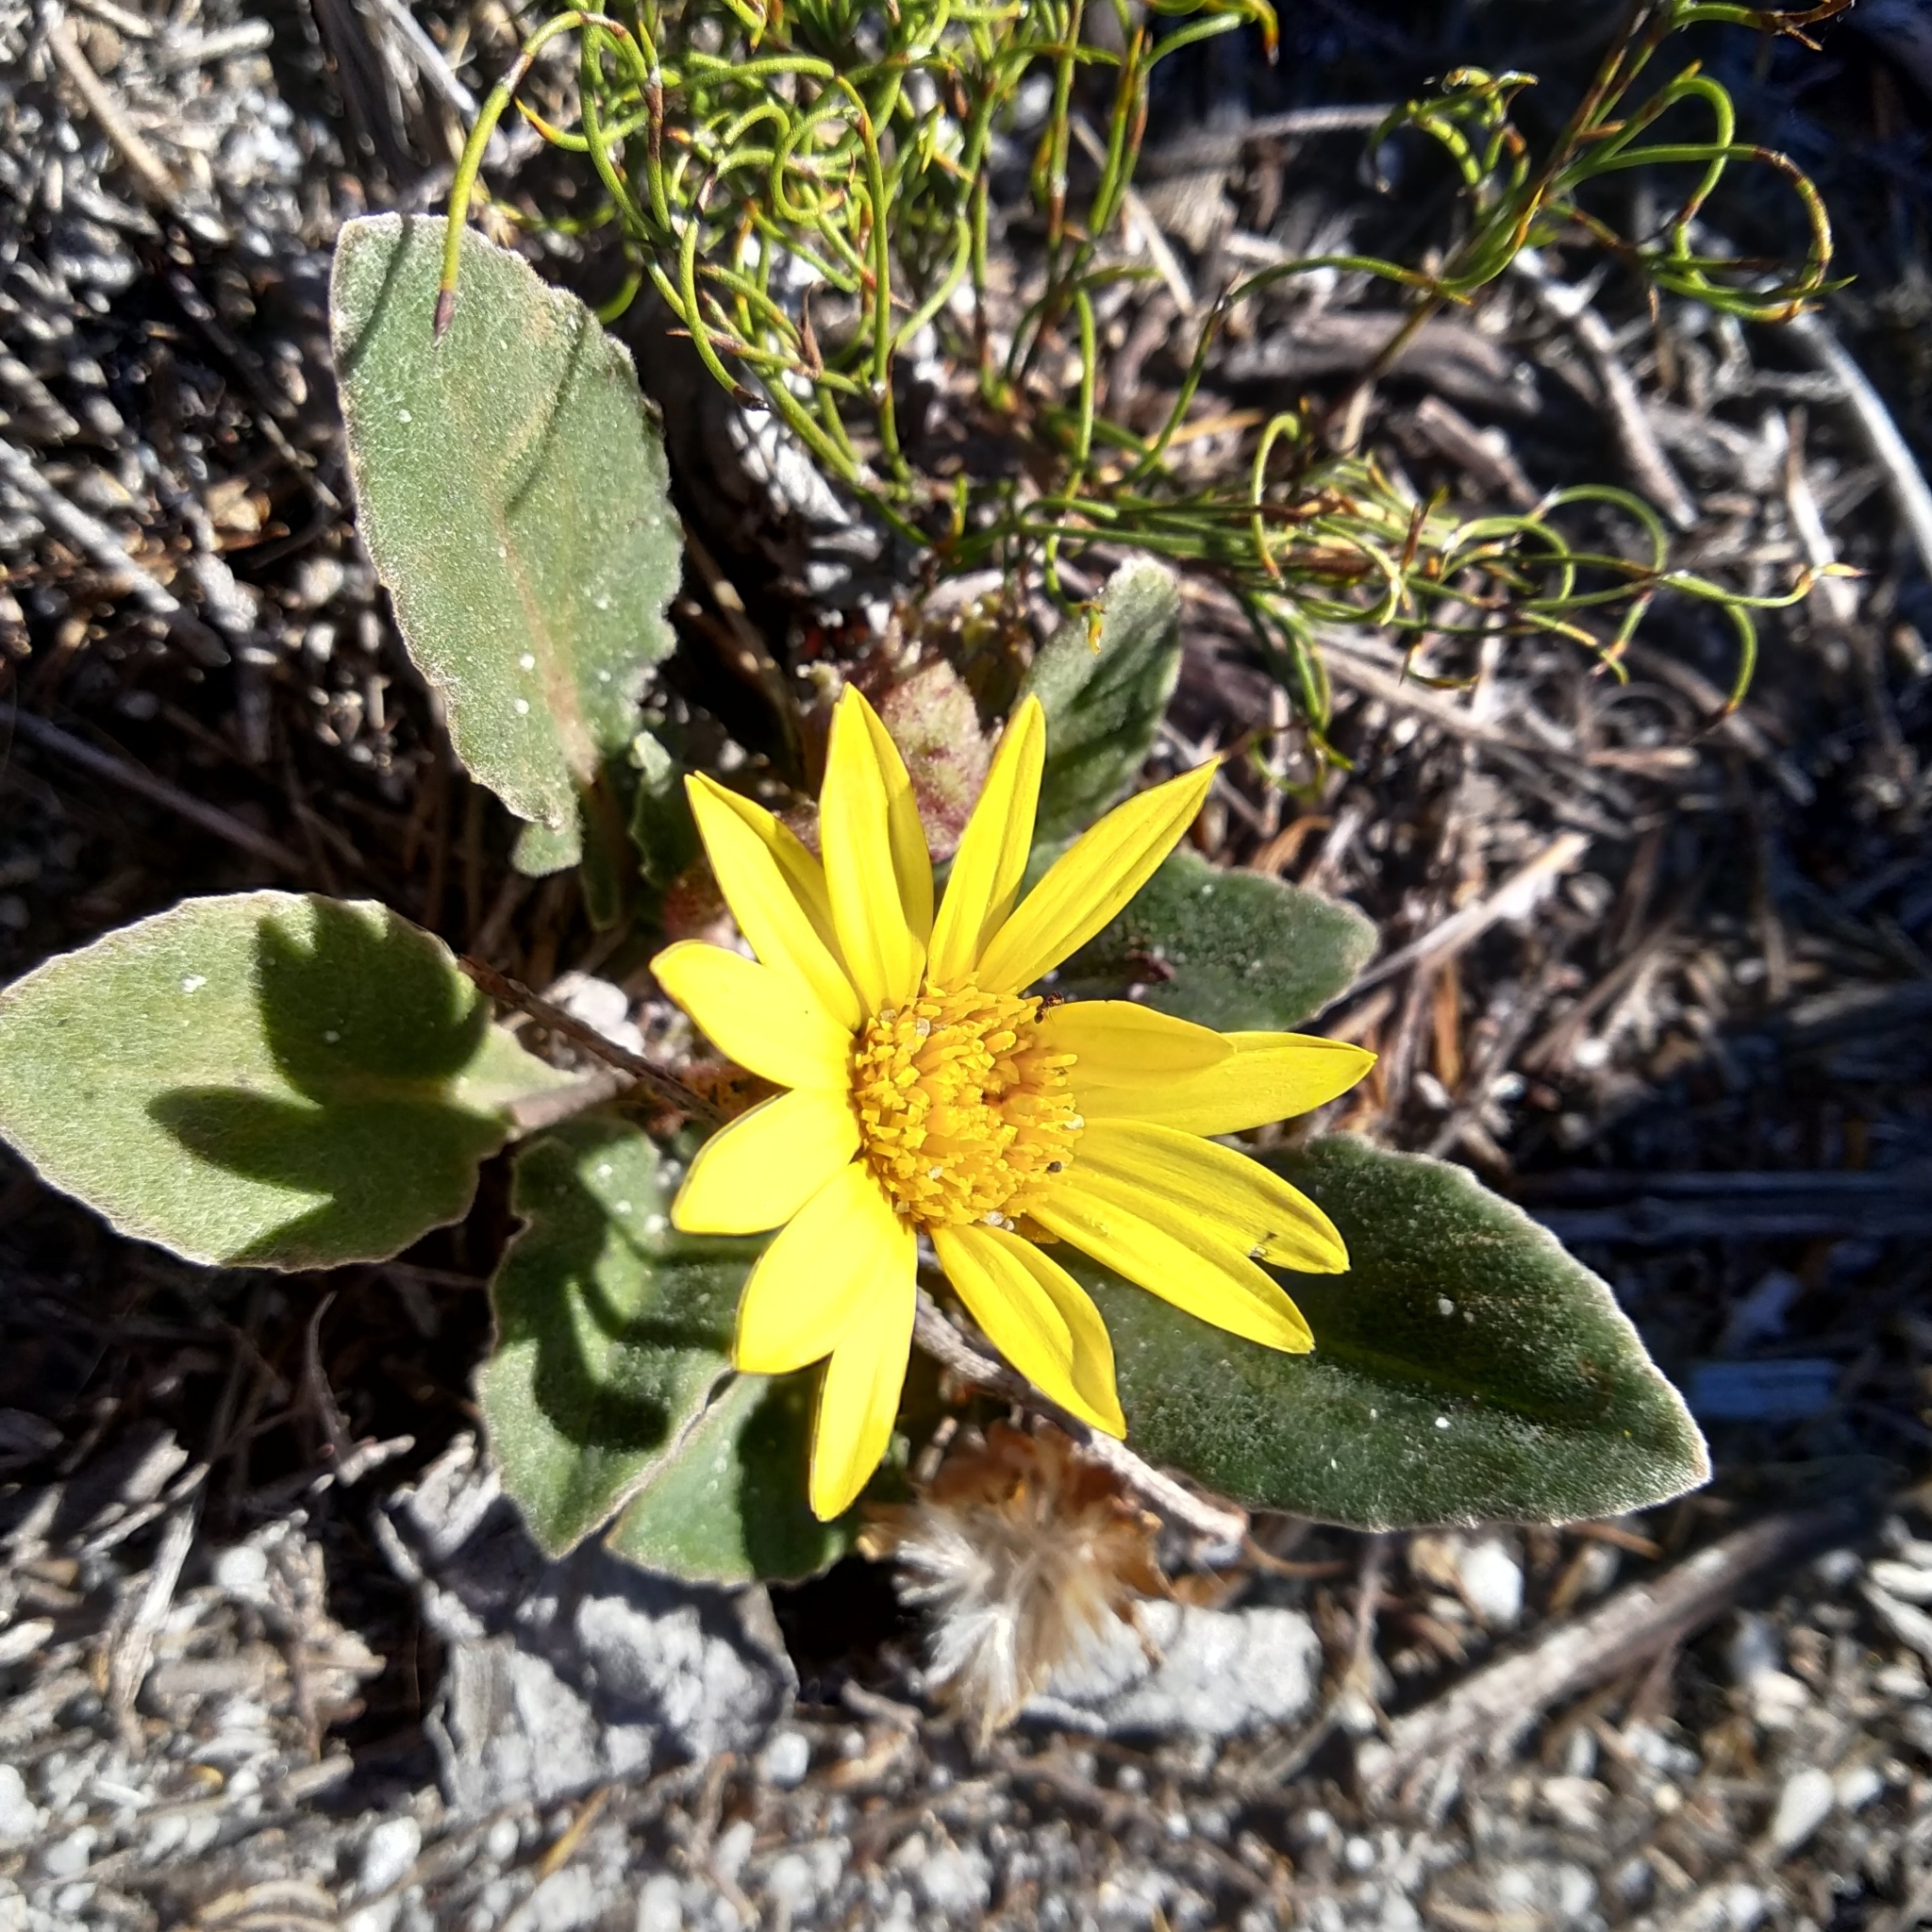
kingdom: Plantae
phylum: Tracheophyta
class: Magnoliopsida
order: Asterales
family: Asteraceae
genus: Haplocarpha
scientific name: Haplocarpha lanata
